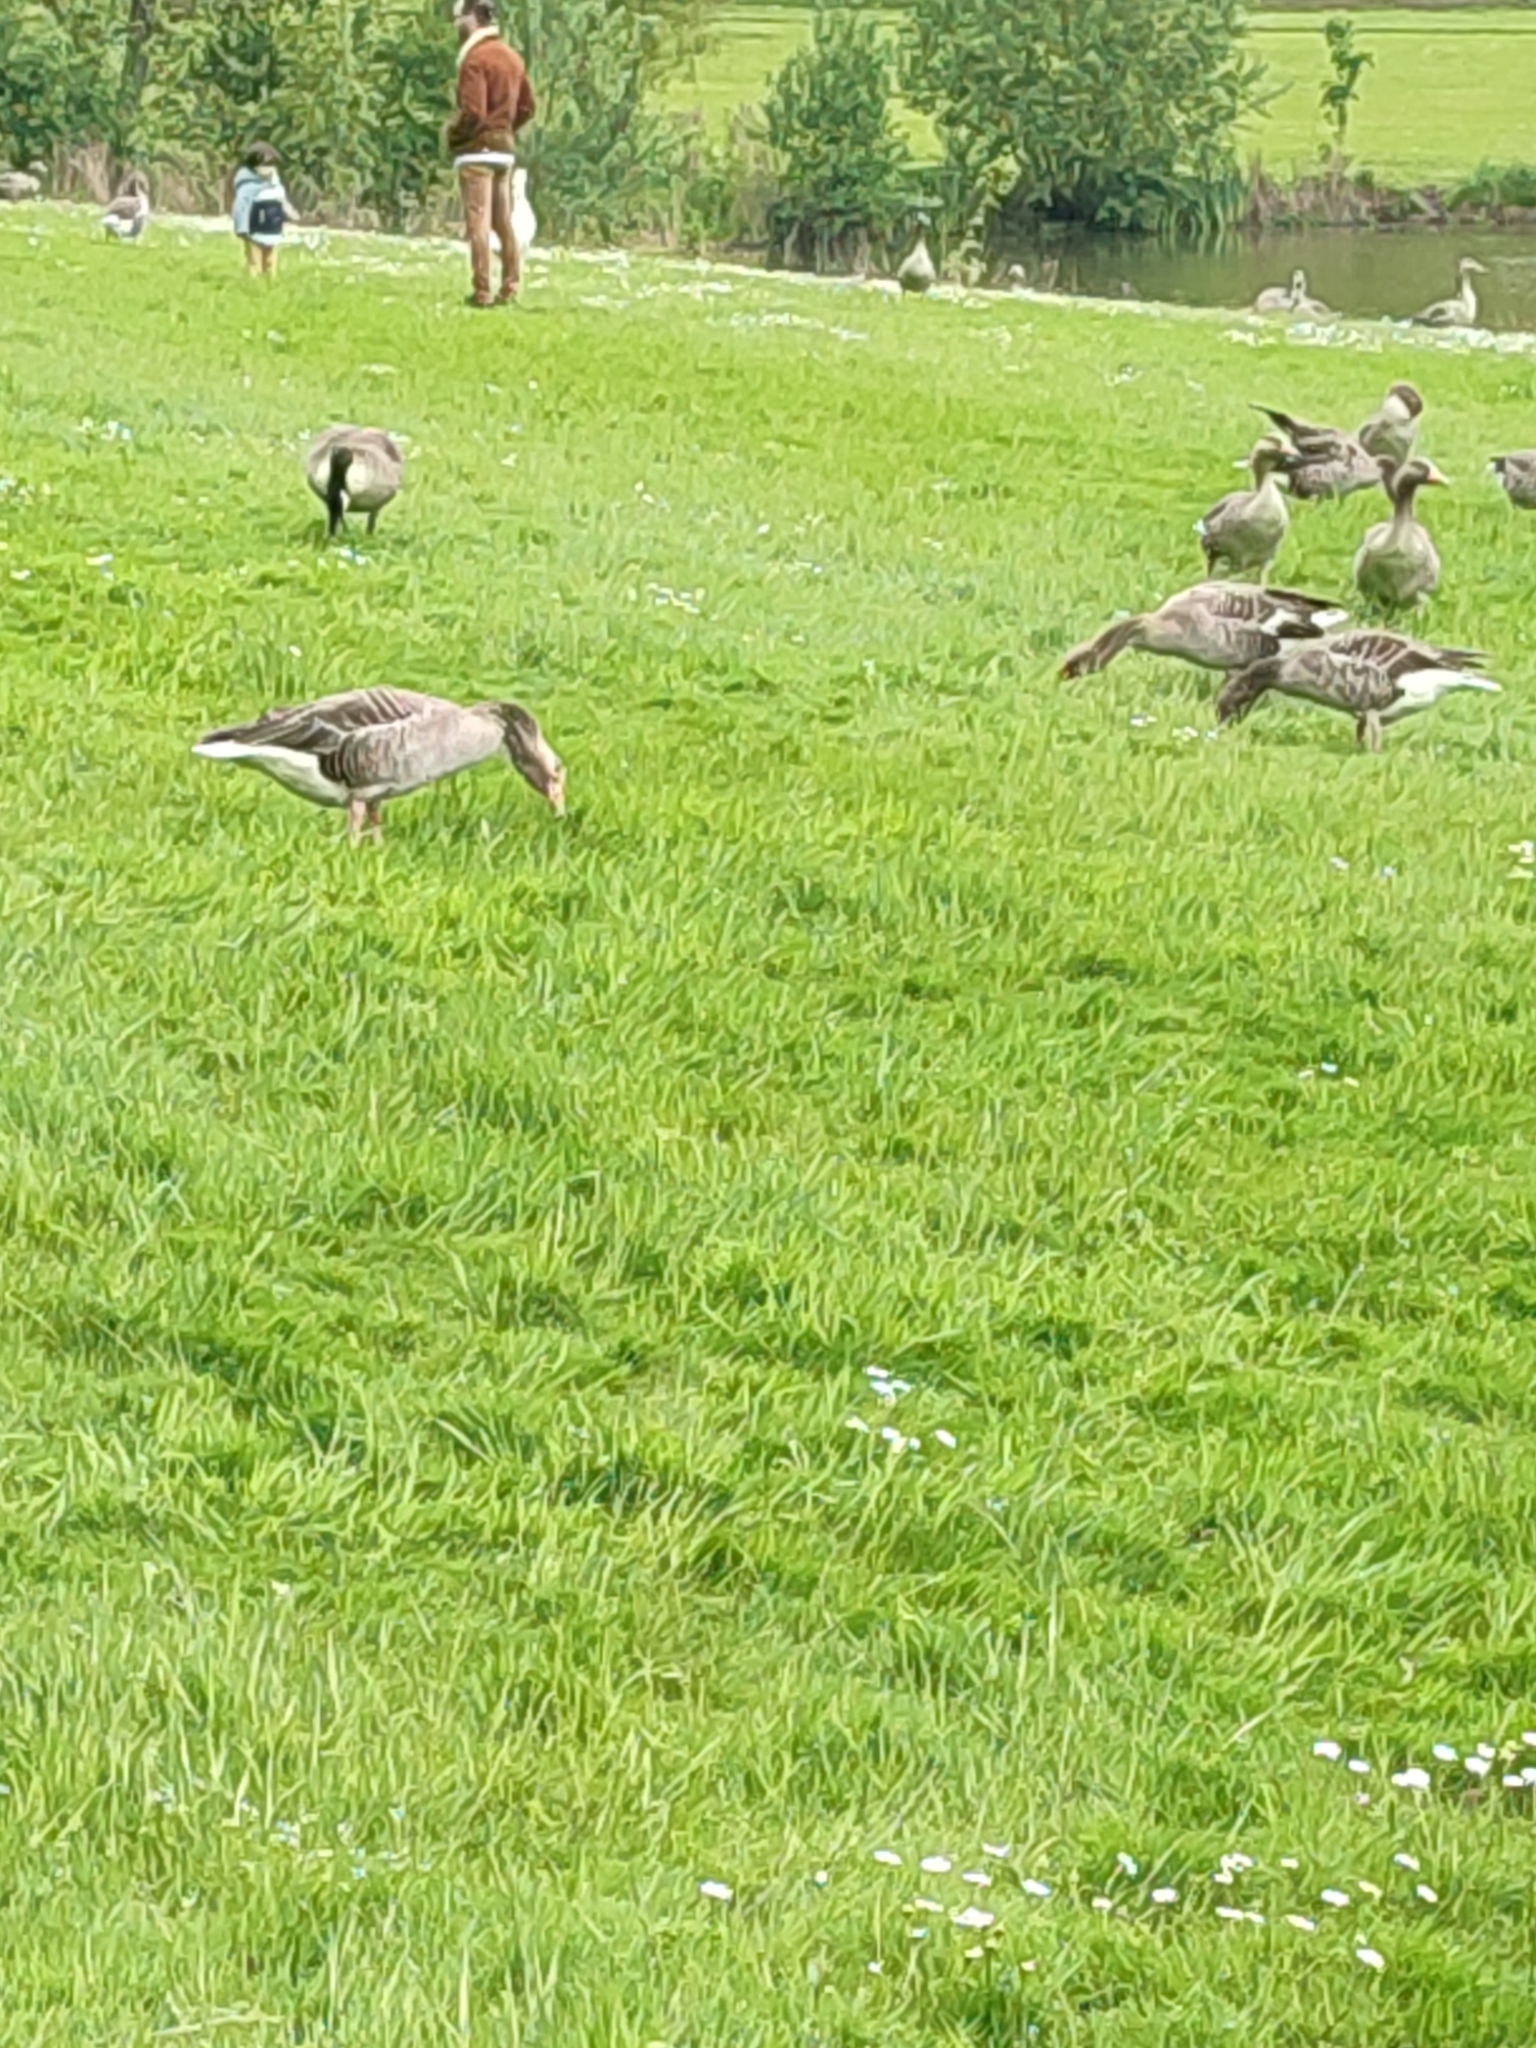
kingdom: Animalia
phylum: Chordata
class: Aves
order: Anseriformes
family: Anatidae
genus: Anser
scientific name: Anser anser
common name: Greylag goose
